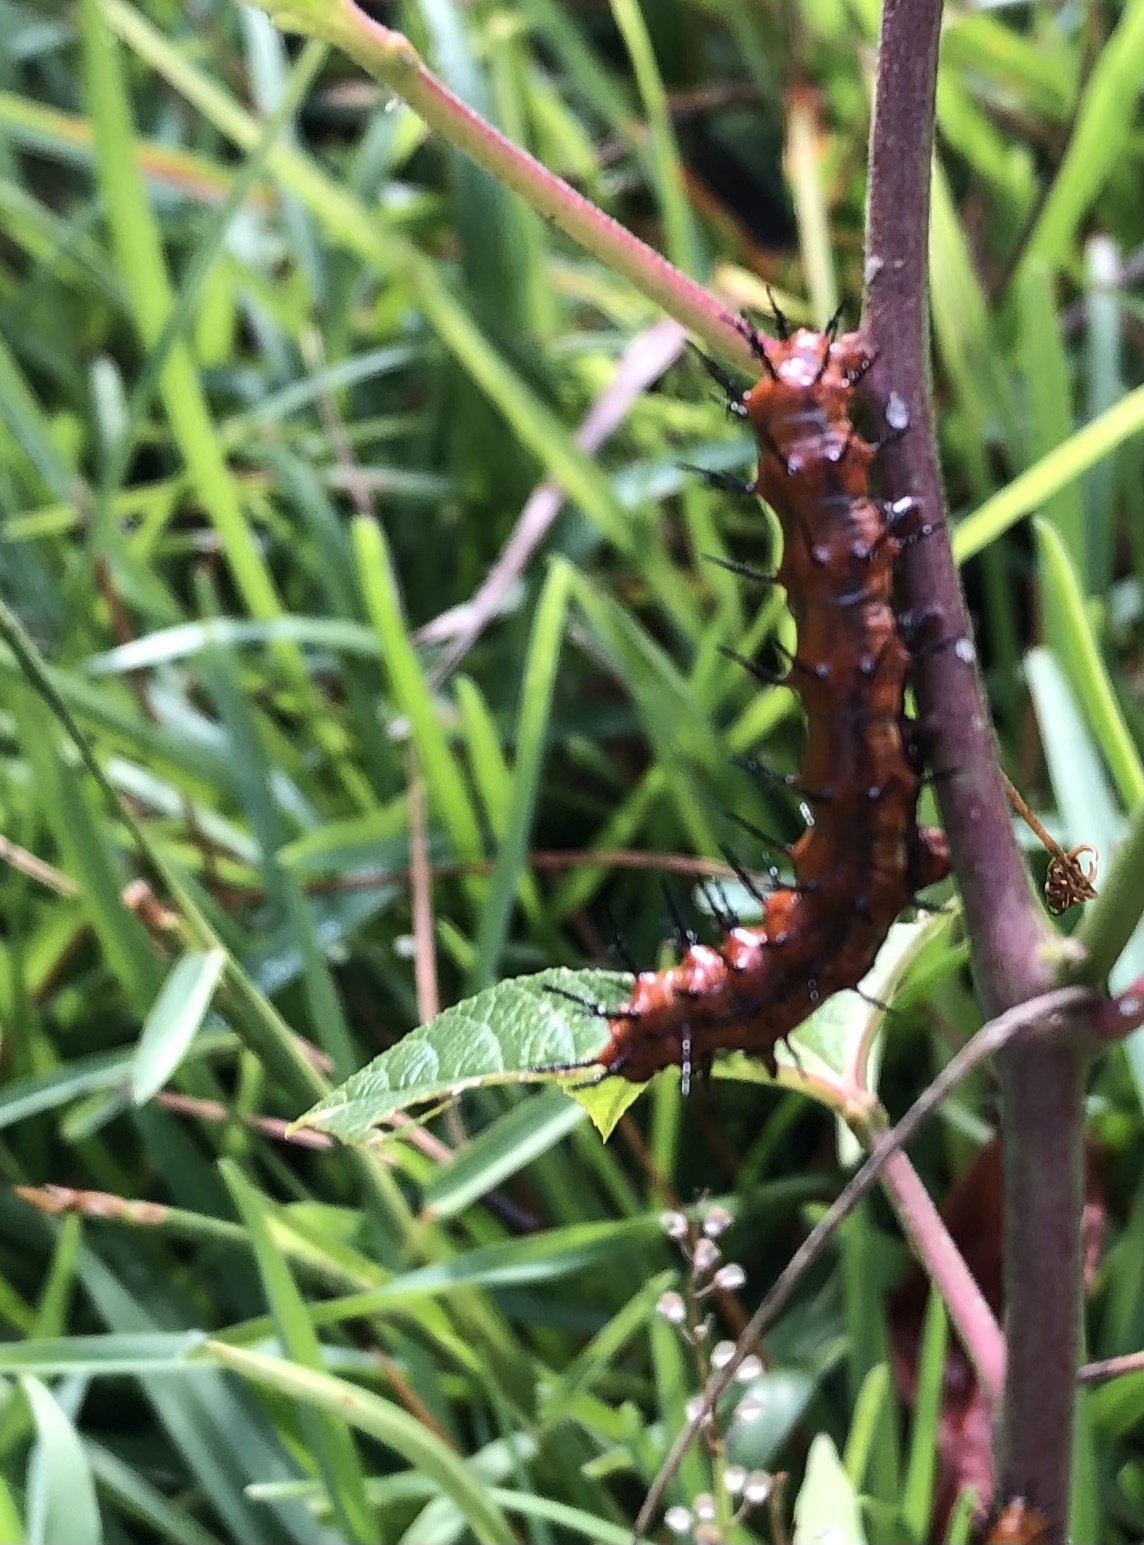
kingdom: Animalia
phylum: Arthropoda
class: Insecta
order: Lepidoptera
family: Nymphalidae
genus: Dione
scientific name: Dione vanillae
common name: Gulf fritillary
